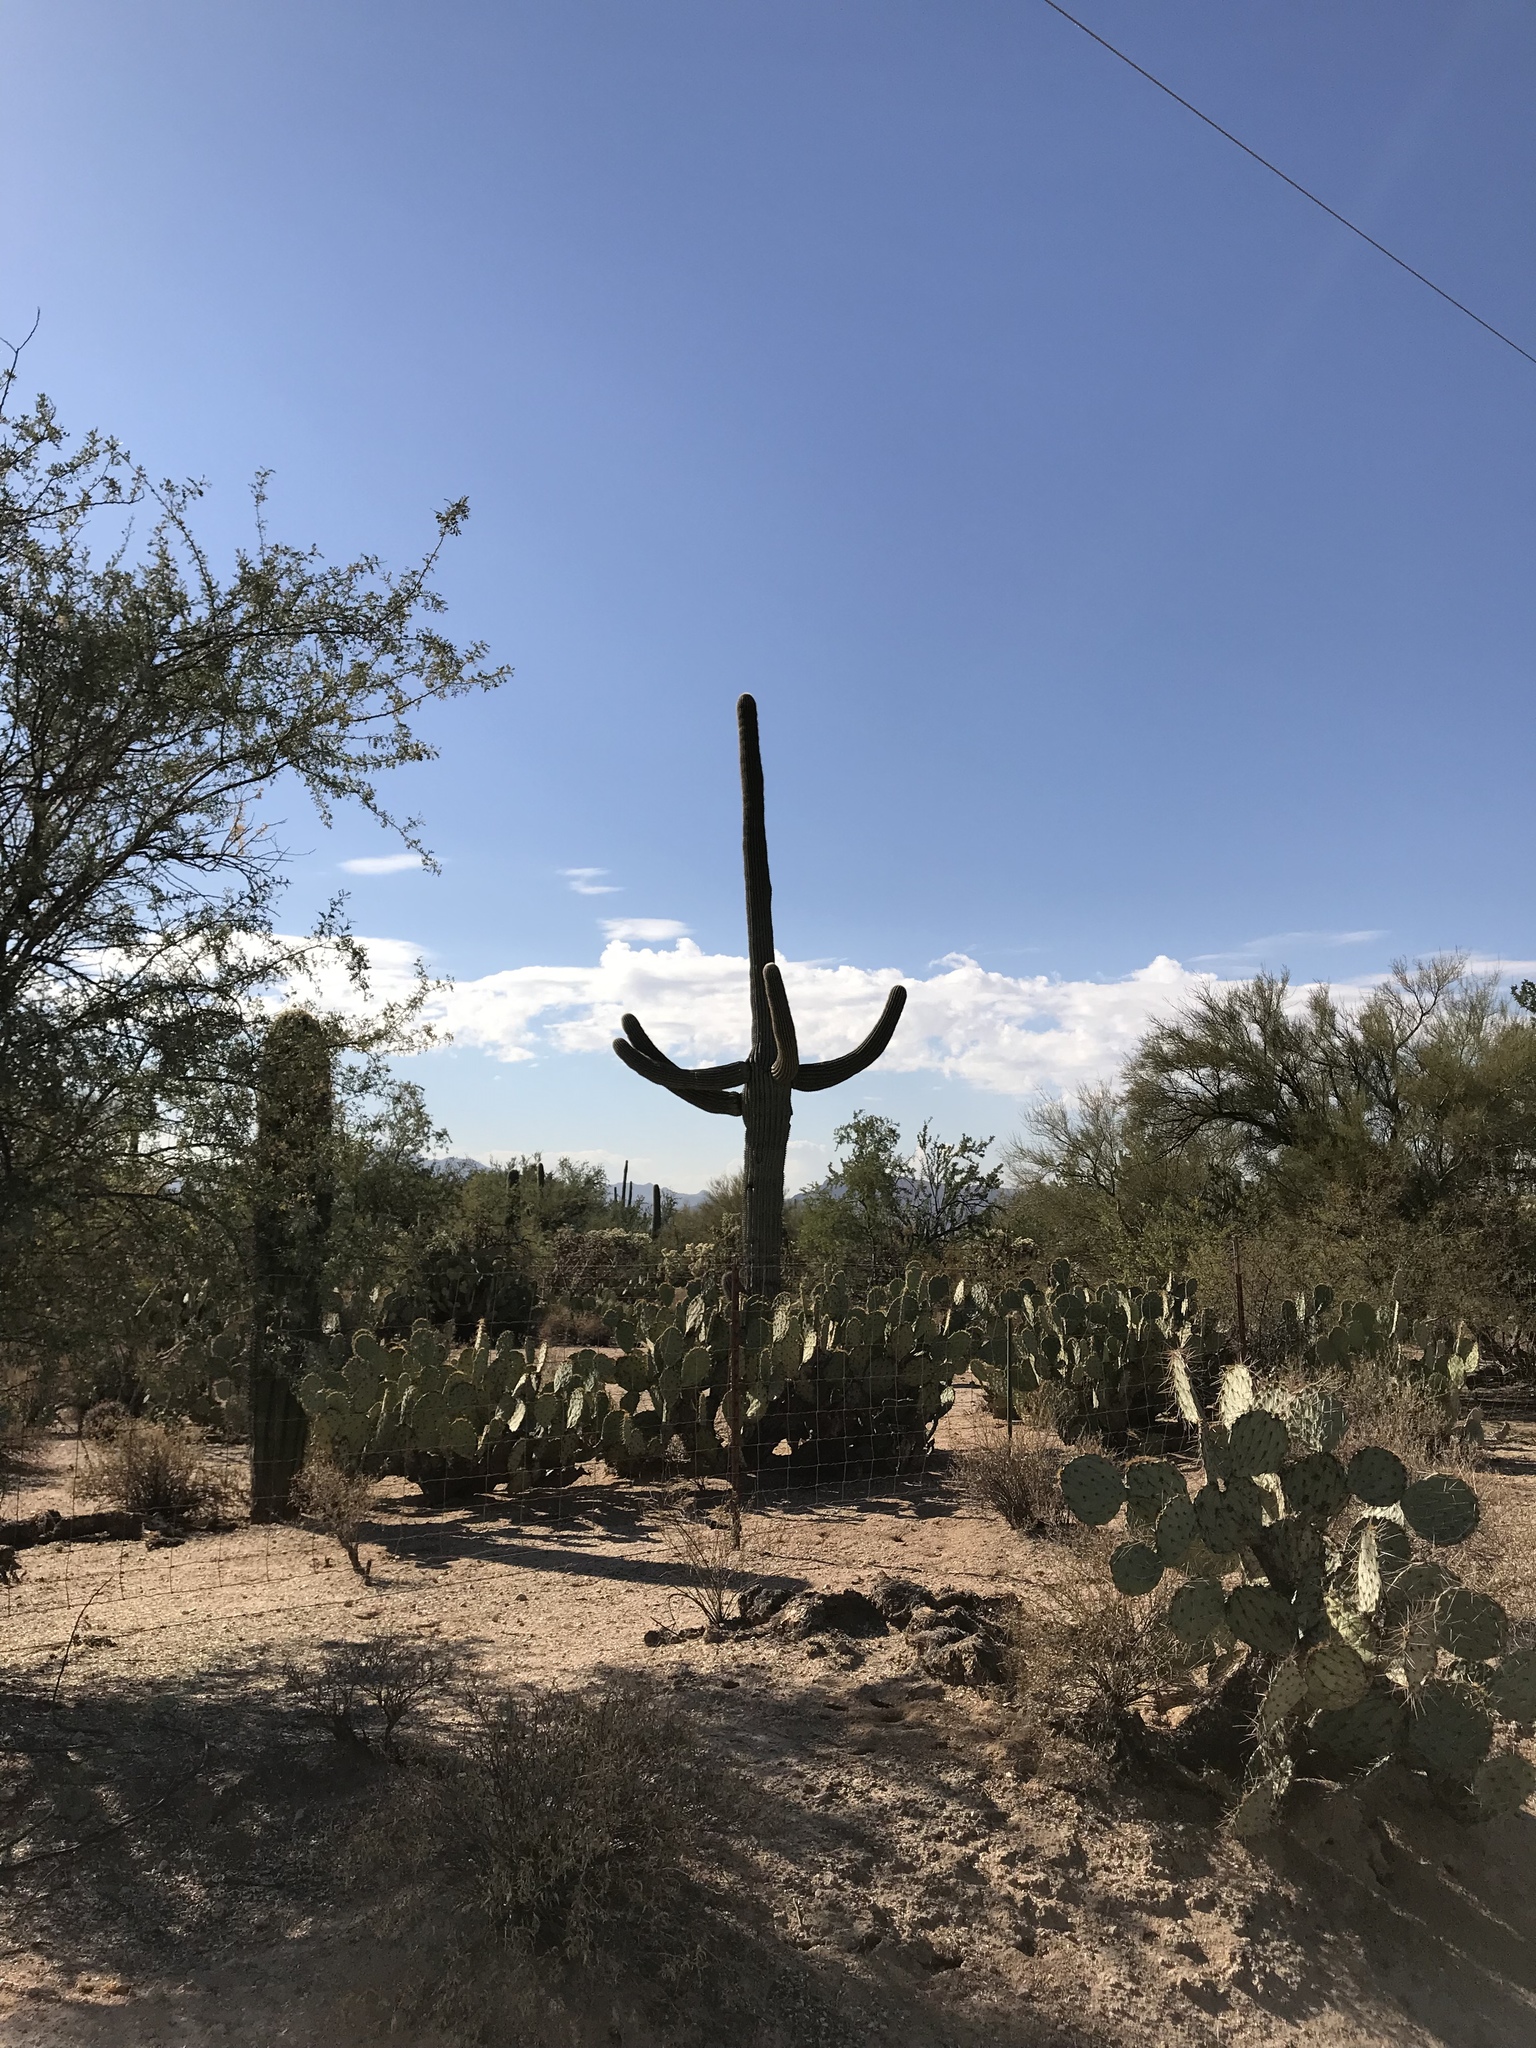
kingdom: Plantae
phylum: Tracheophyta
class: Magnoliopsida
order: Caryophyllales
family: Cactaceae
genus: Carnegiea
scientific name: Carnegiea gigantea
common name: Saguaro
